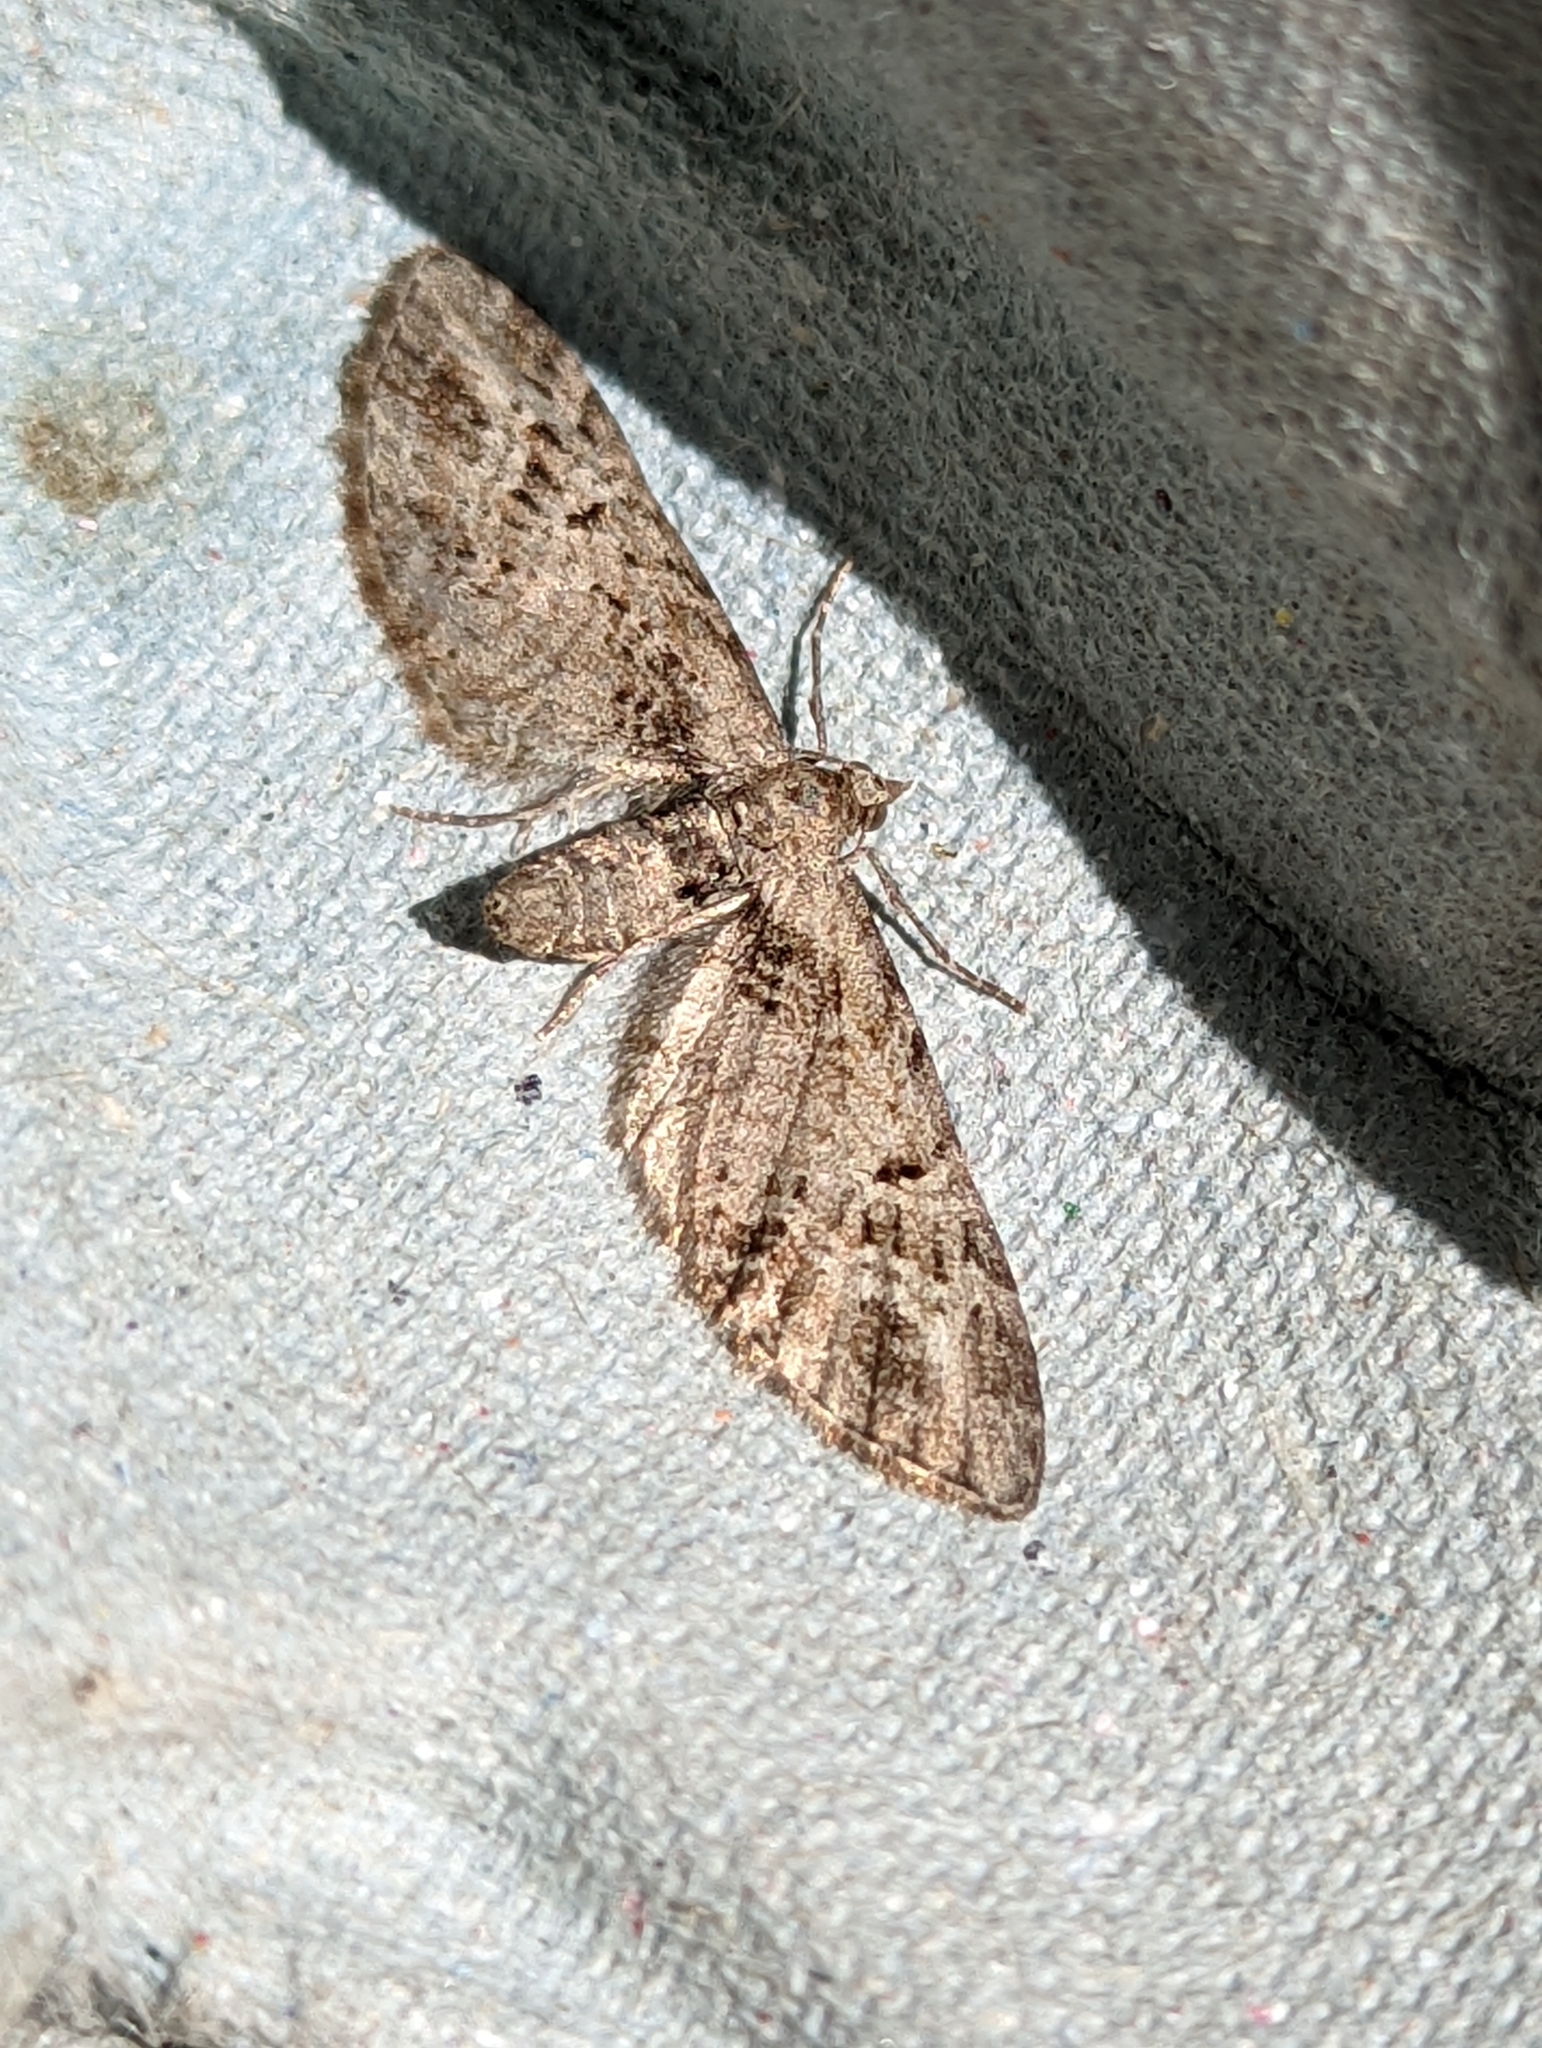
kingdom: Animalia
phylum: Arthropoda
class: Insecta
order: Lepidoptera
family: Geometridae
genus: Eupithecia
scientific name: Eupithecia exiguata
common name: Mottled pug
